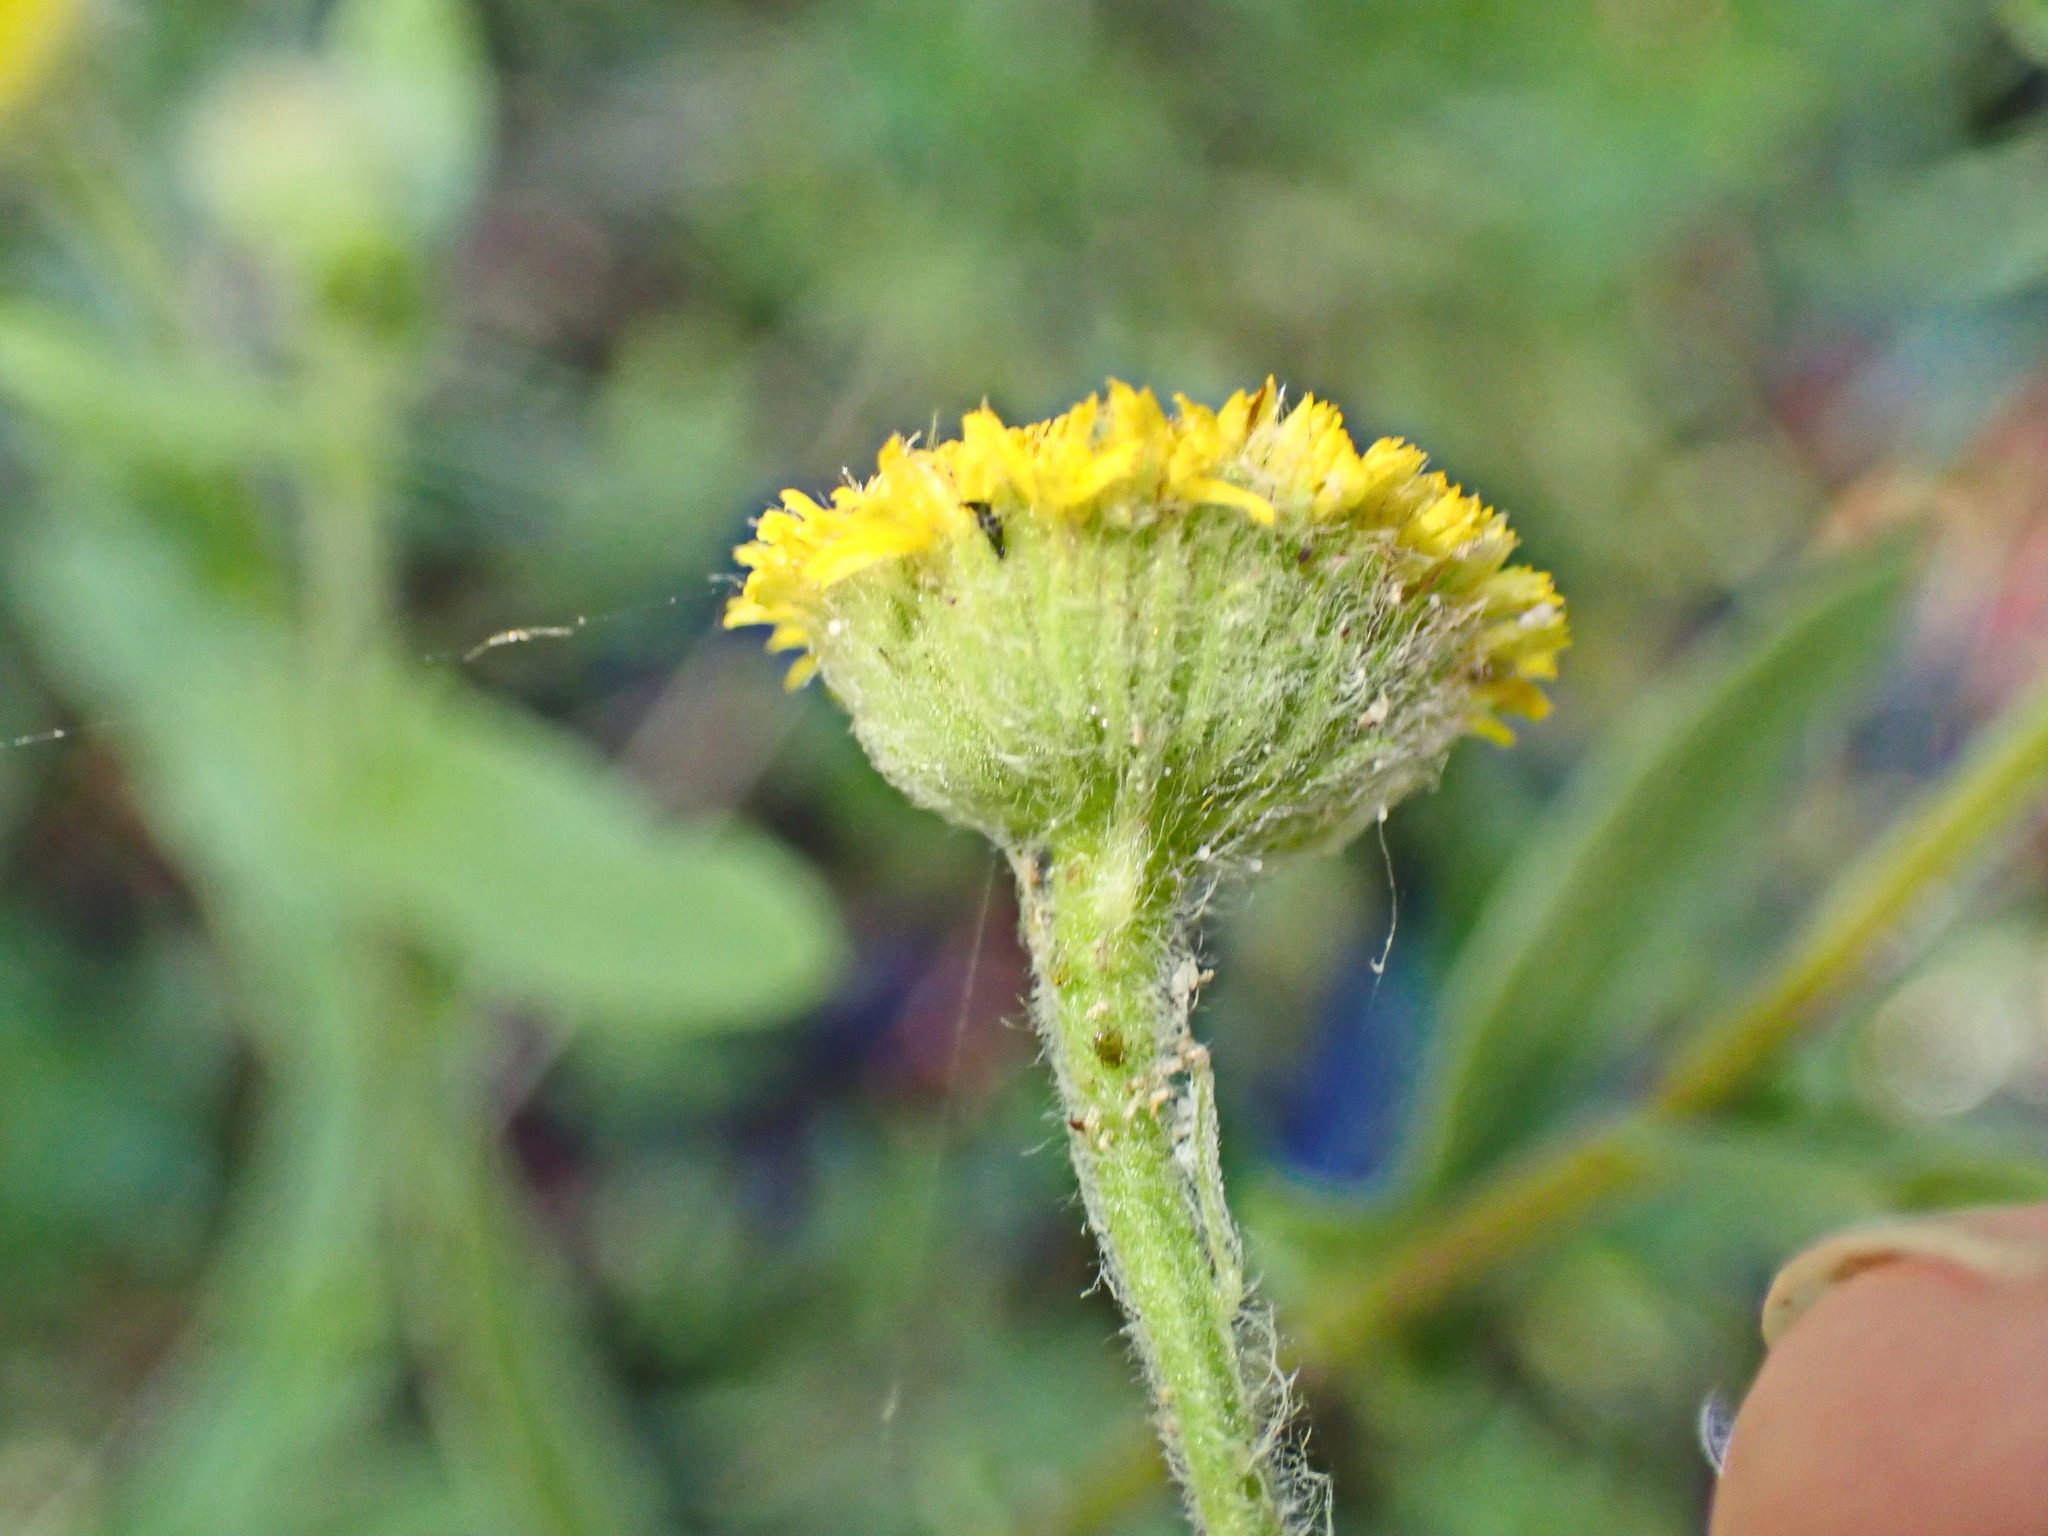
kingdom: Plantae
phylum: Tracheophyta
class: Magnoliopsida
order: Asterales
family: Asteraceae
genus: Pulicaria
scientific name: Pulicaria scabra
